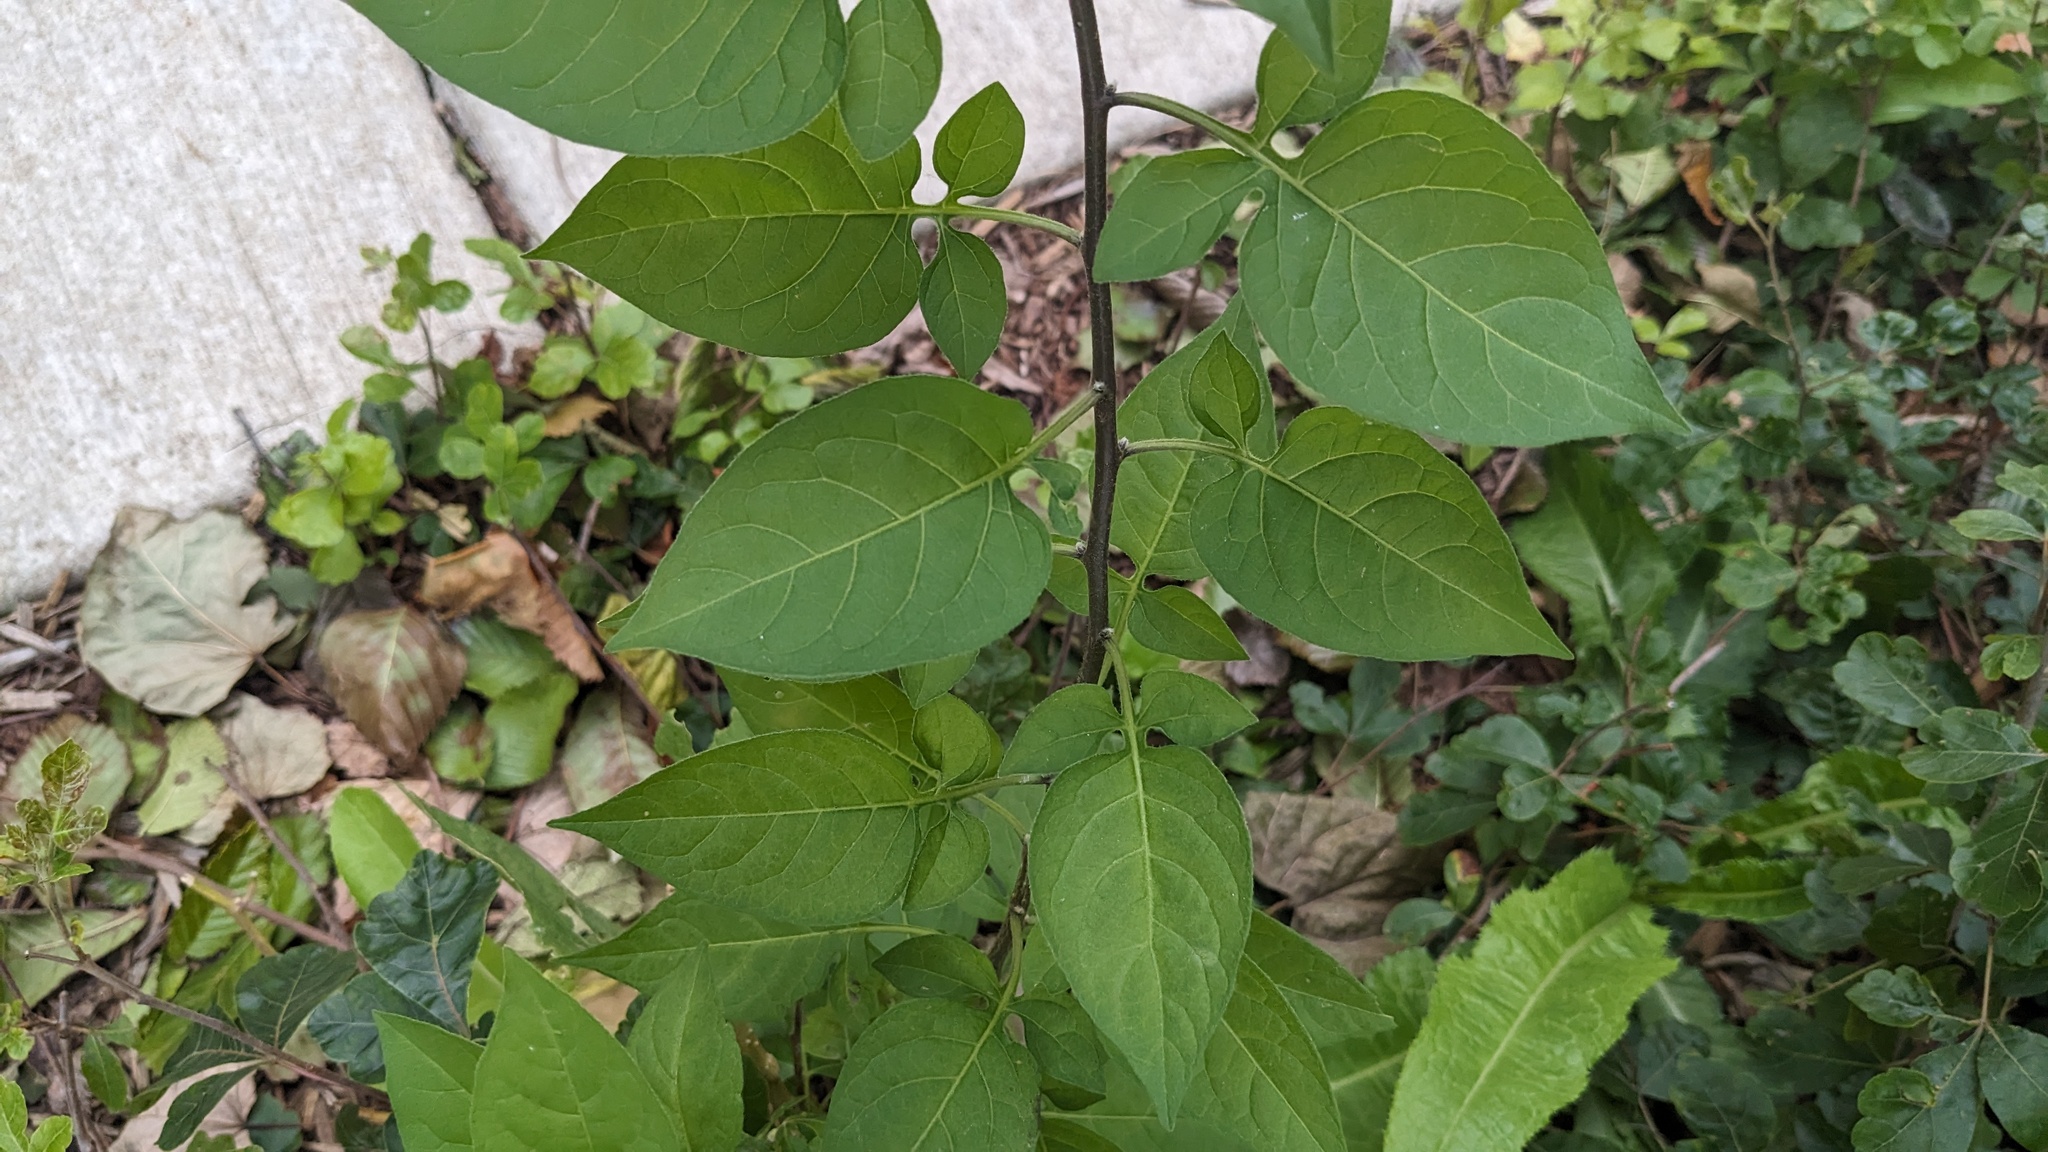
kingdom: Plantae
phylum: Tracheophyta
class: Magnoliopsida
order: Solanales
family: Solanaceae
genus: Solanum
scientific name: Solanum dulcamara
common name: Climbing nightshade
